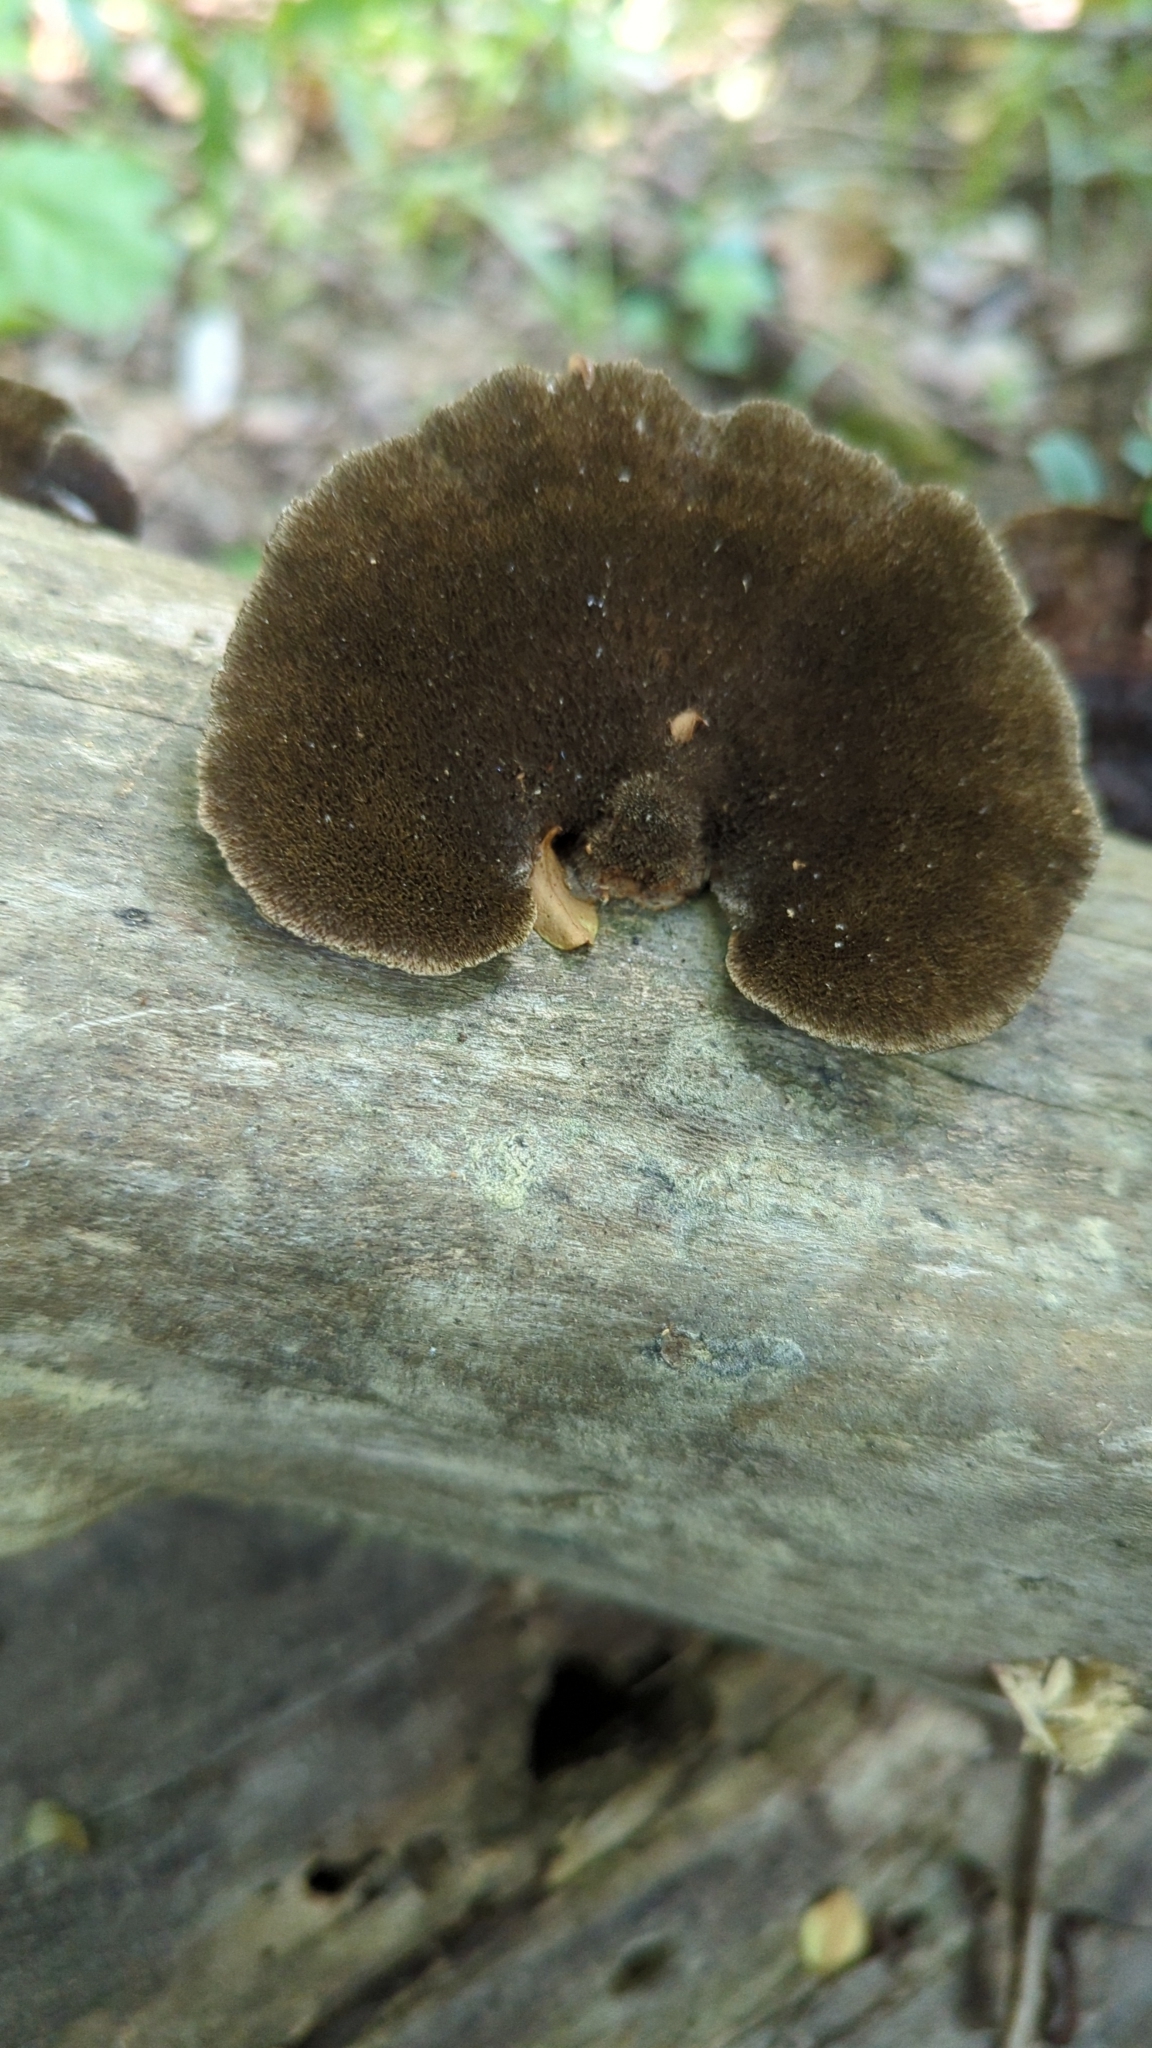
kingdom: Fungi
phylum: Basidiomycota
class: Agaricomycetes
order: Polyporales
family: Cerrenaceae
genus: Cerrena
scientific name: Cerrena hydnoides
